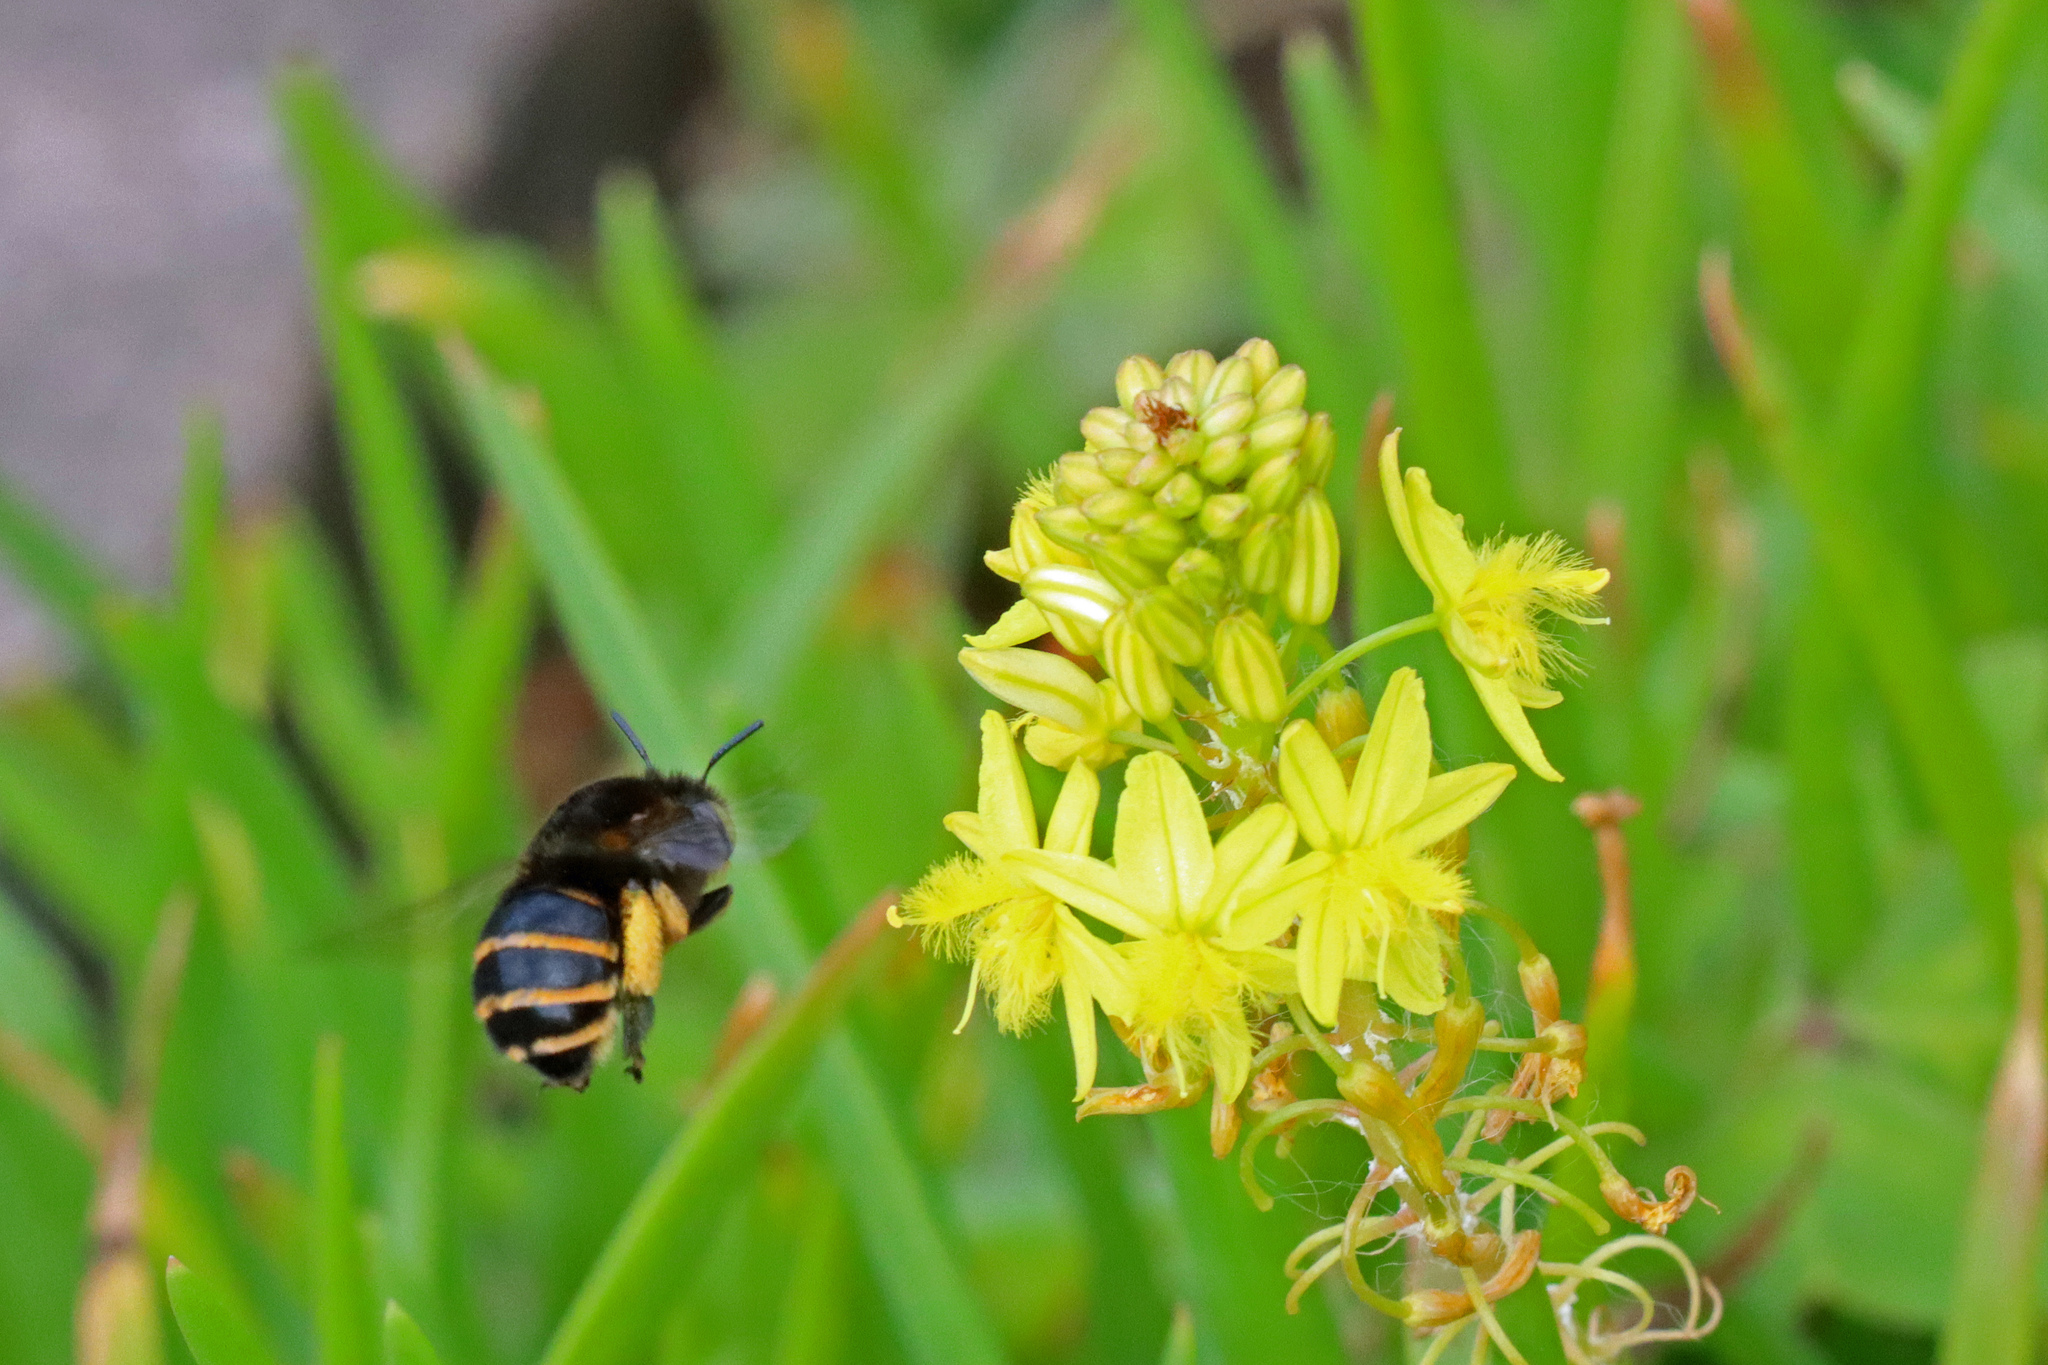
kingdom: Animalia
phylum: Arthropoda
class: Insecta
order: Hymenoptera
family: Apidae
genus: Amegilla
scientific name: Amegilla quadrifasciata
